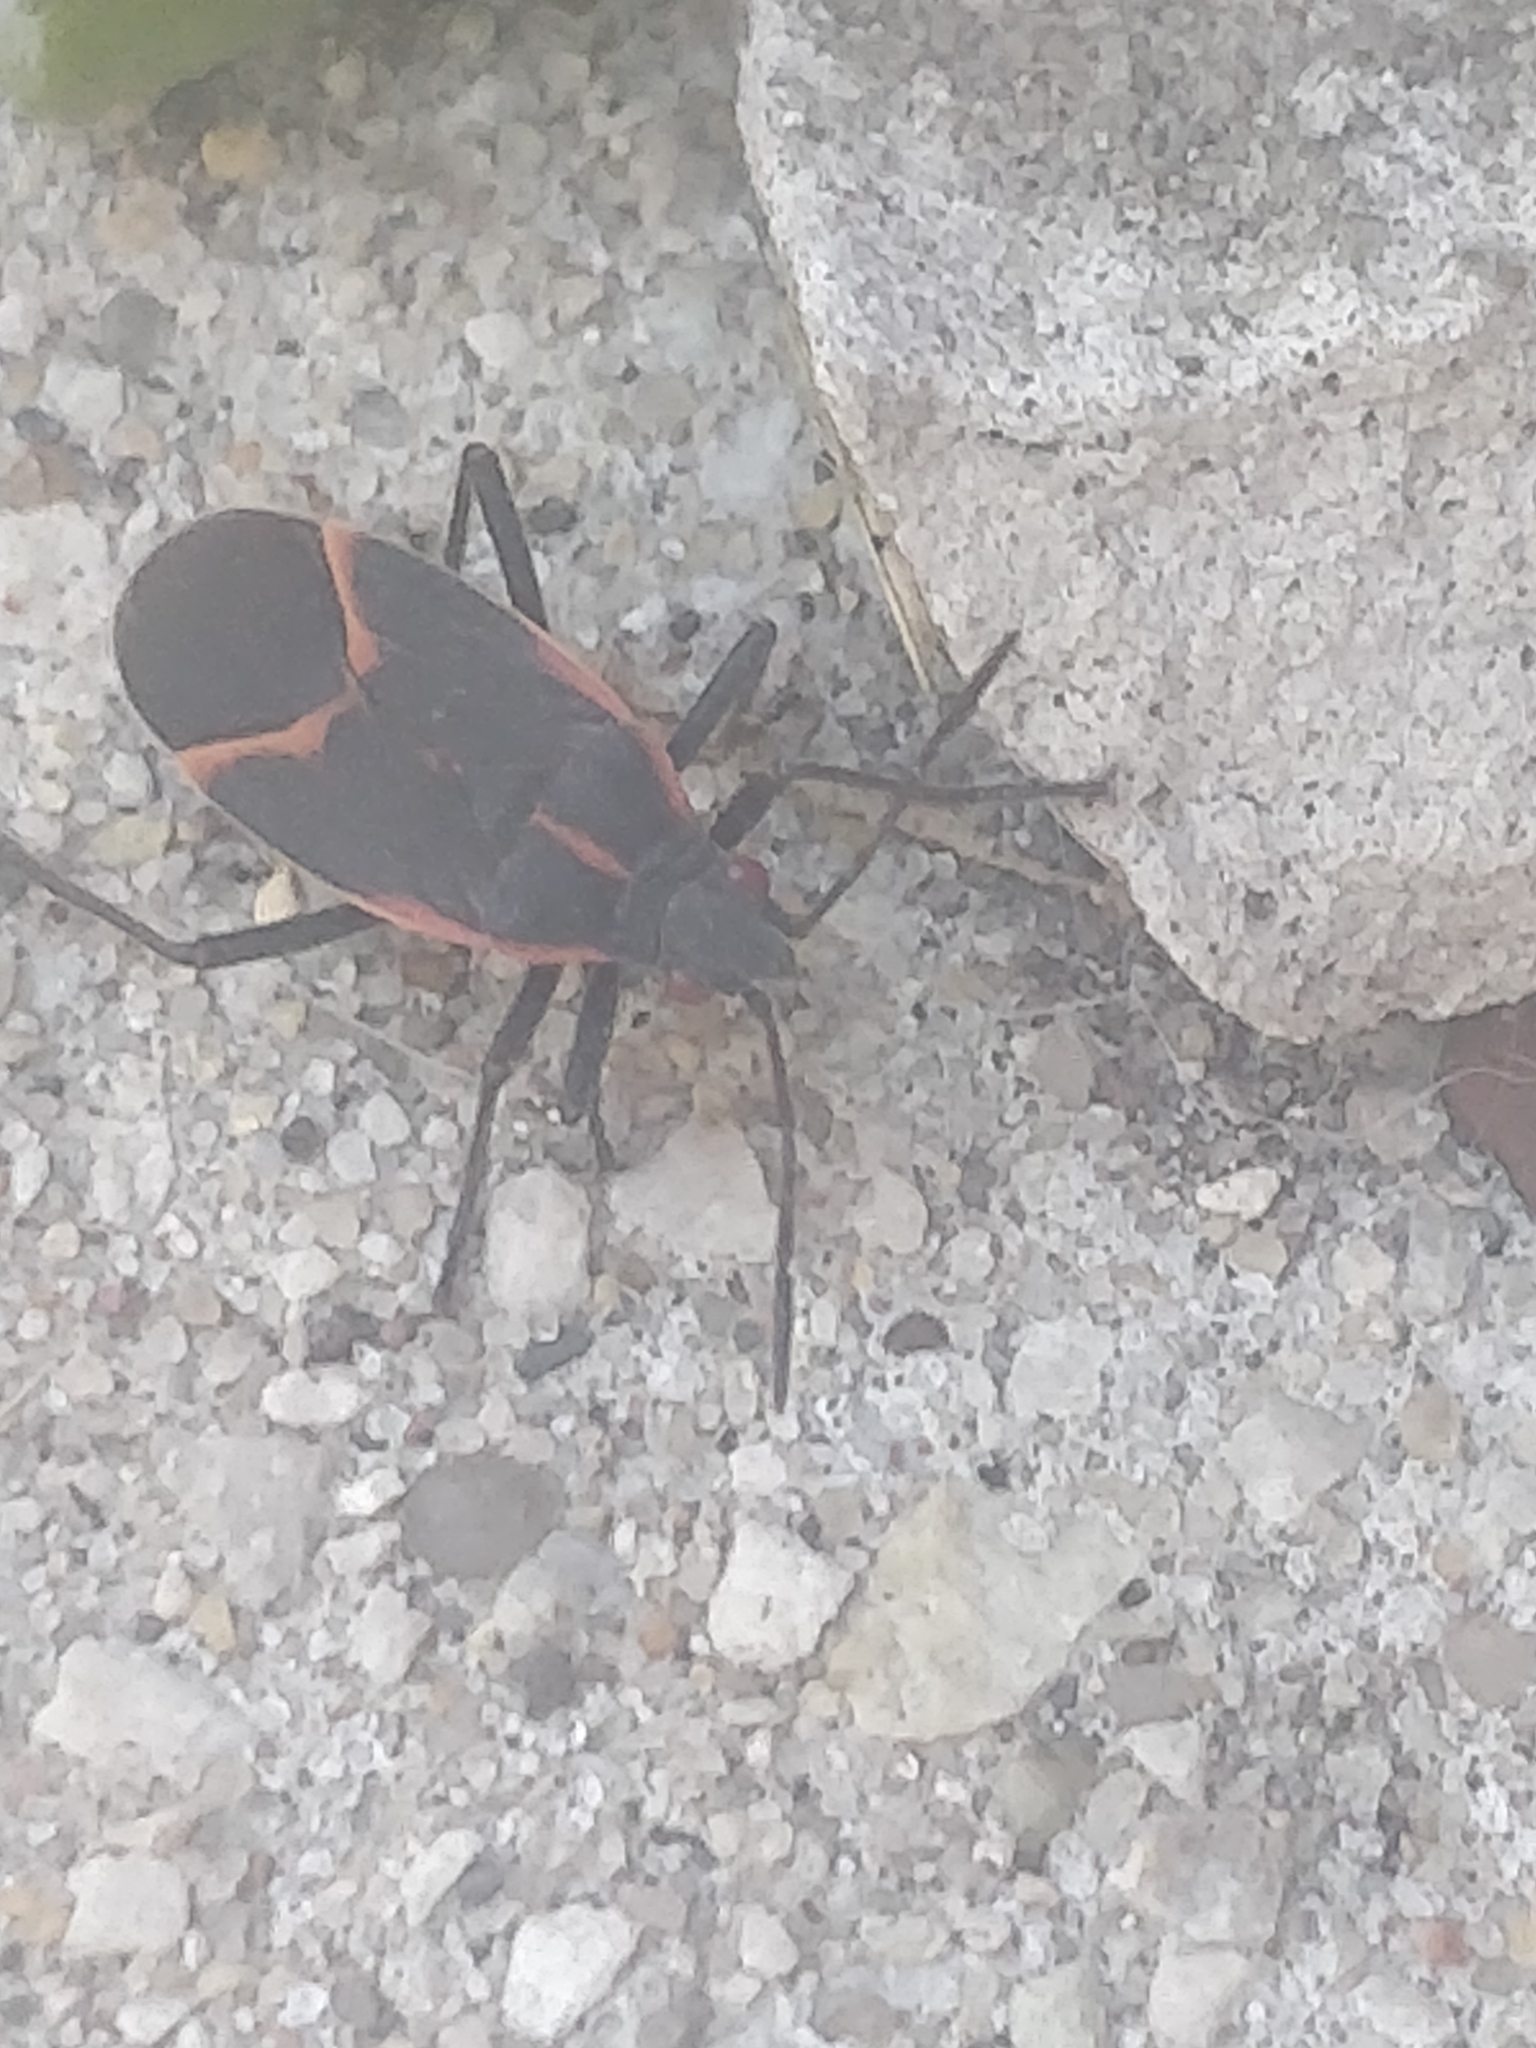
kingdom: Animalia
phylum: Arthropoda
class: Insecta
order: Hemiptera
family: Rhopalidae
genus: Boisea
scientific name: Boisea trivittata
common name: Boxelder bug
